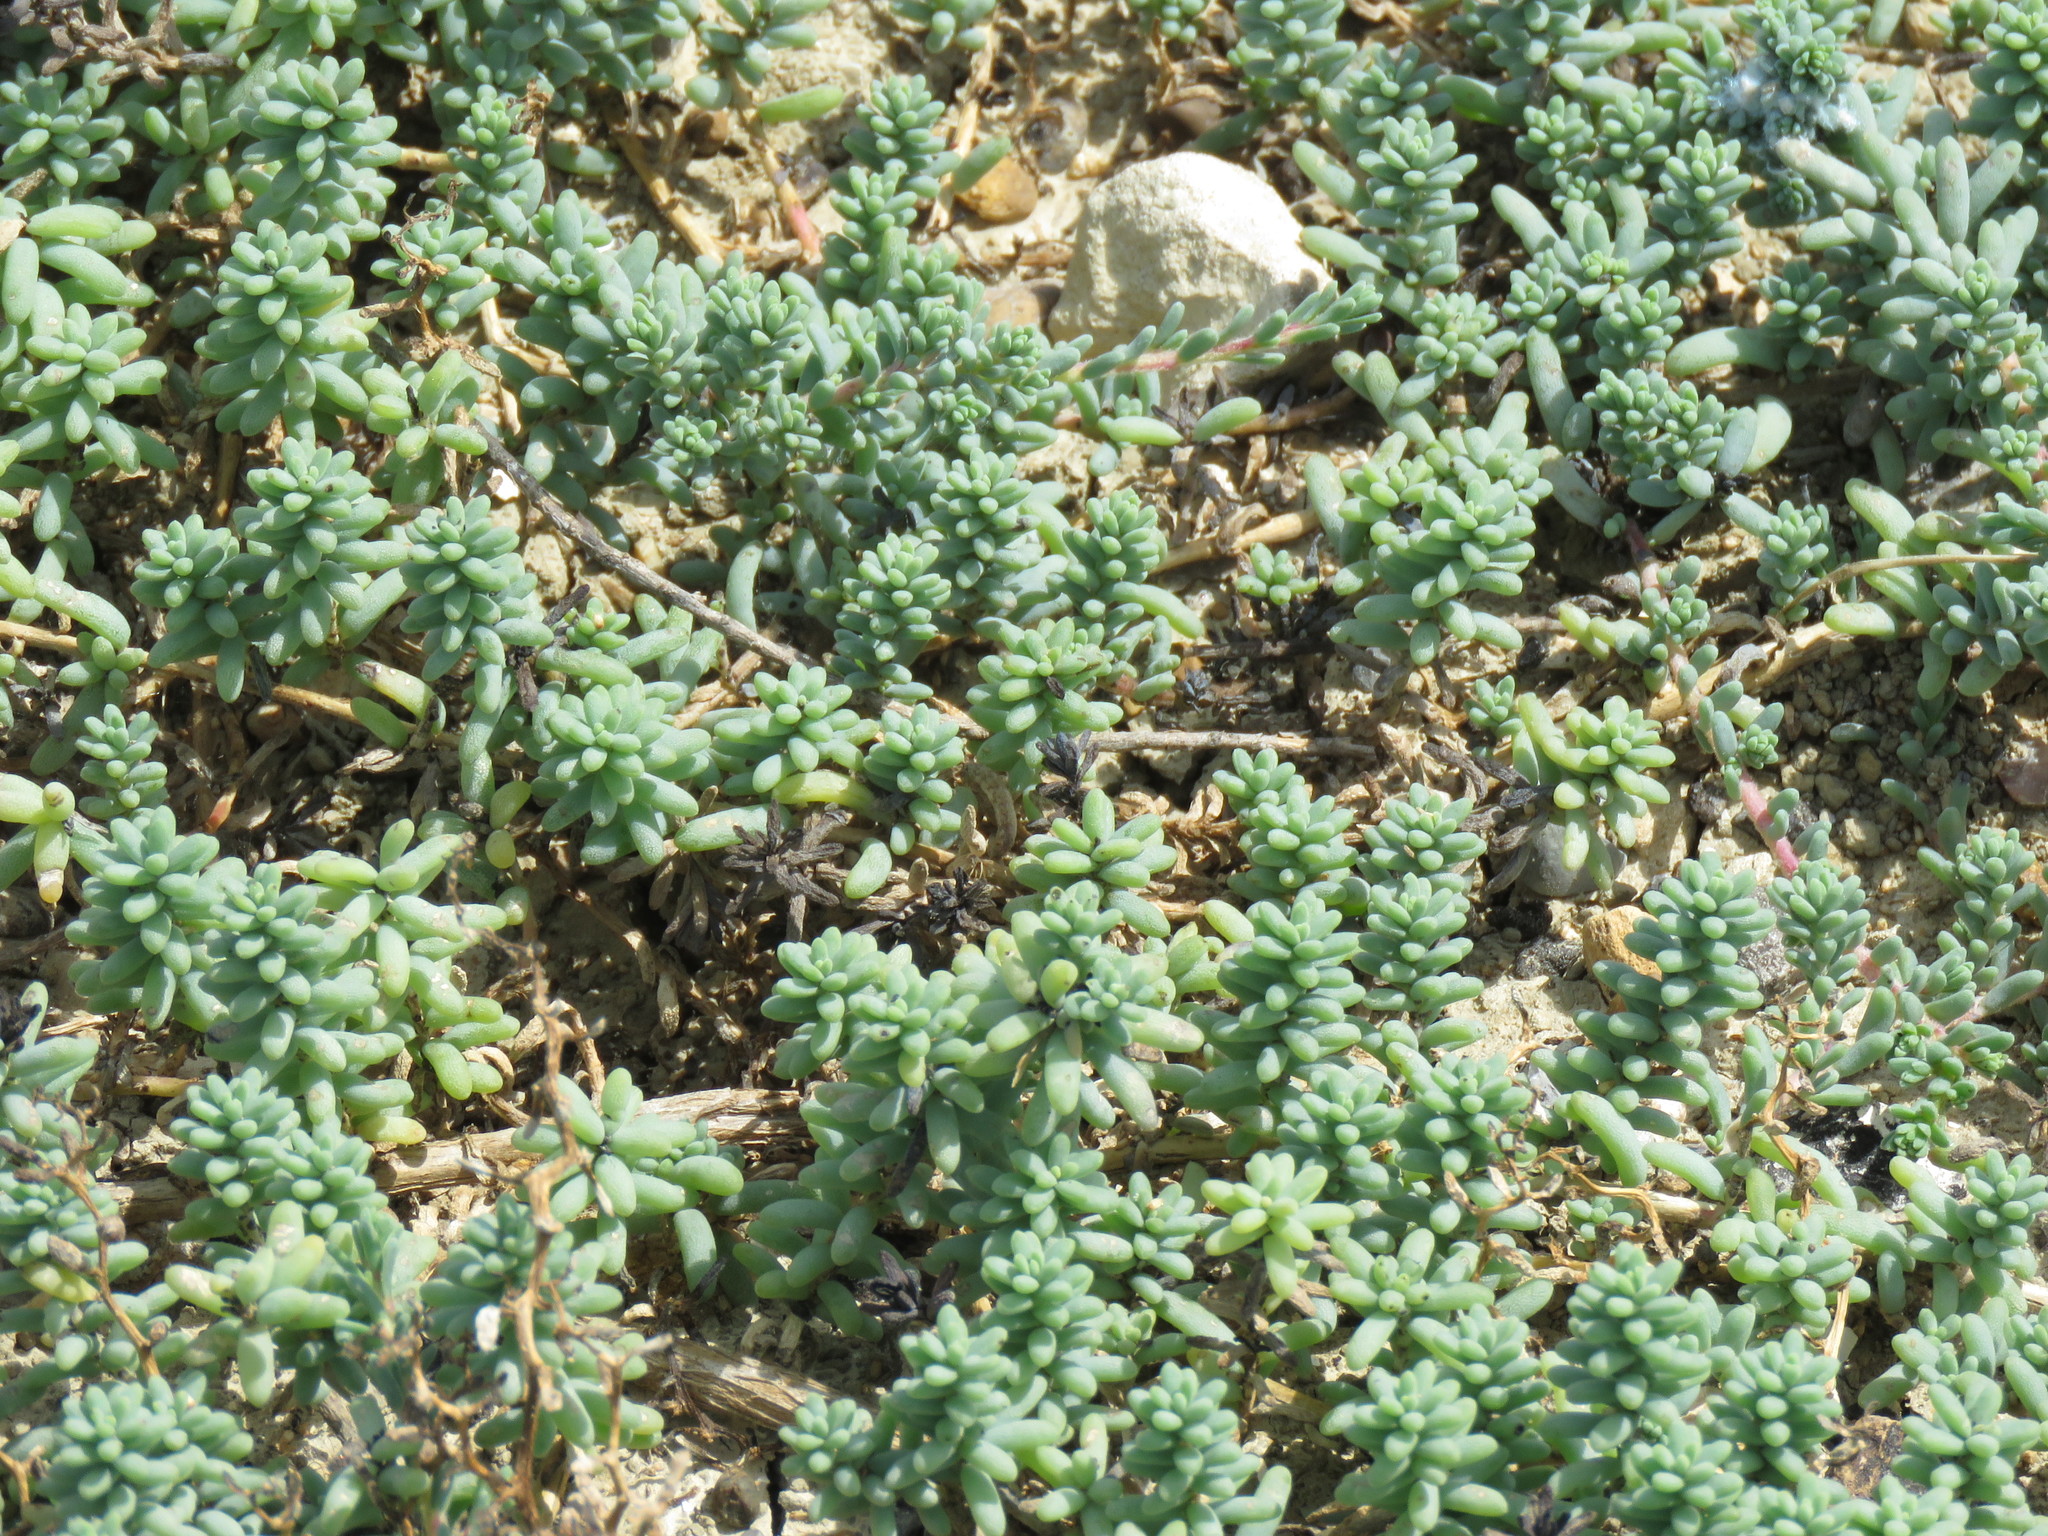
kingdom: Plantae
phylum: Tracheophyta
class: Magnoliopsida
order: Caryophyllales
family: Amaranthaceae
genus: Suaeda
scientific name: Suaeda conferta
